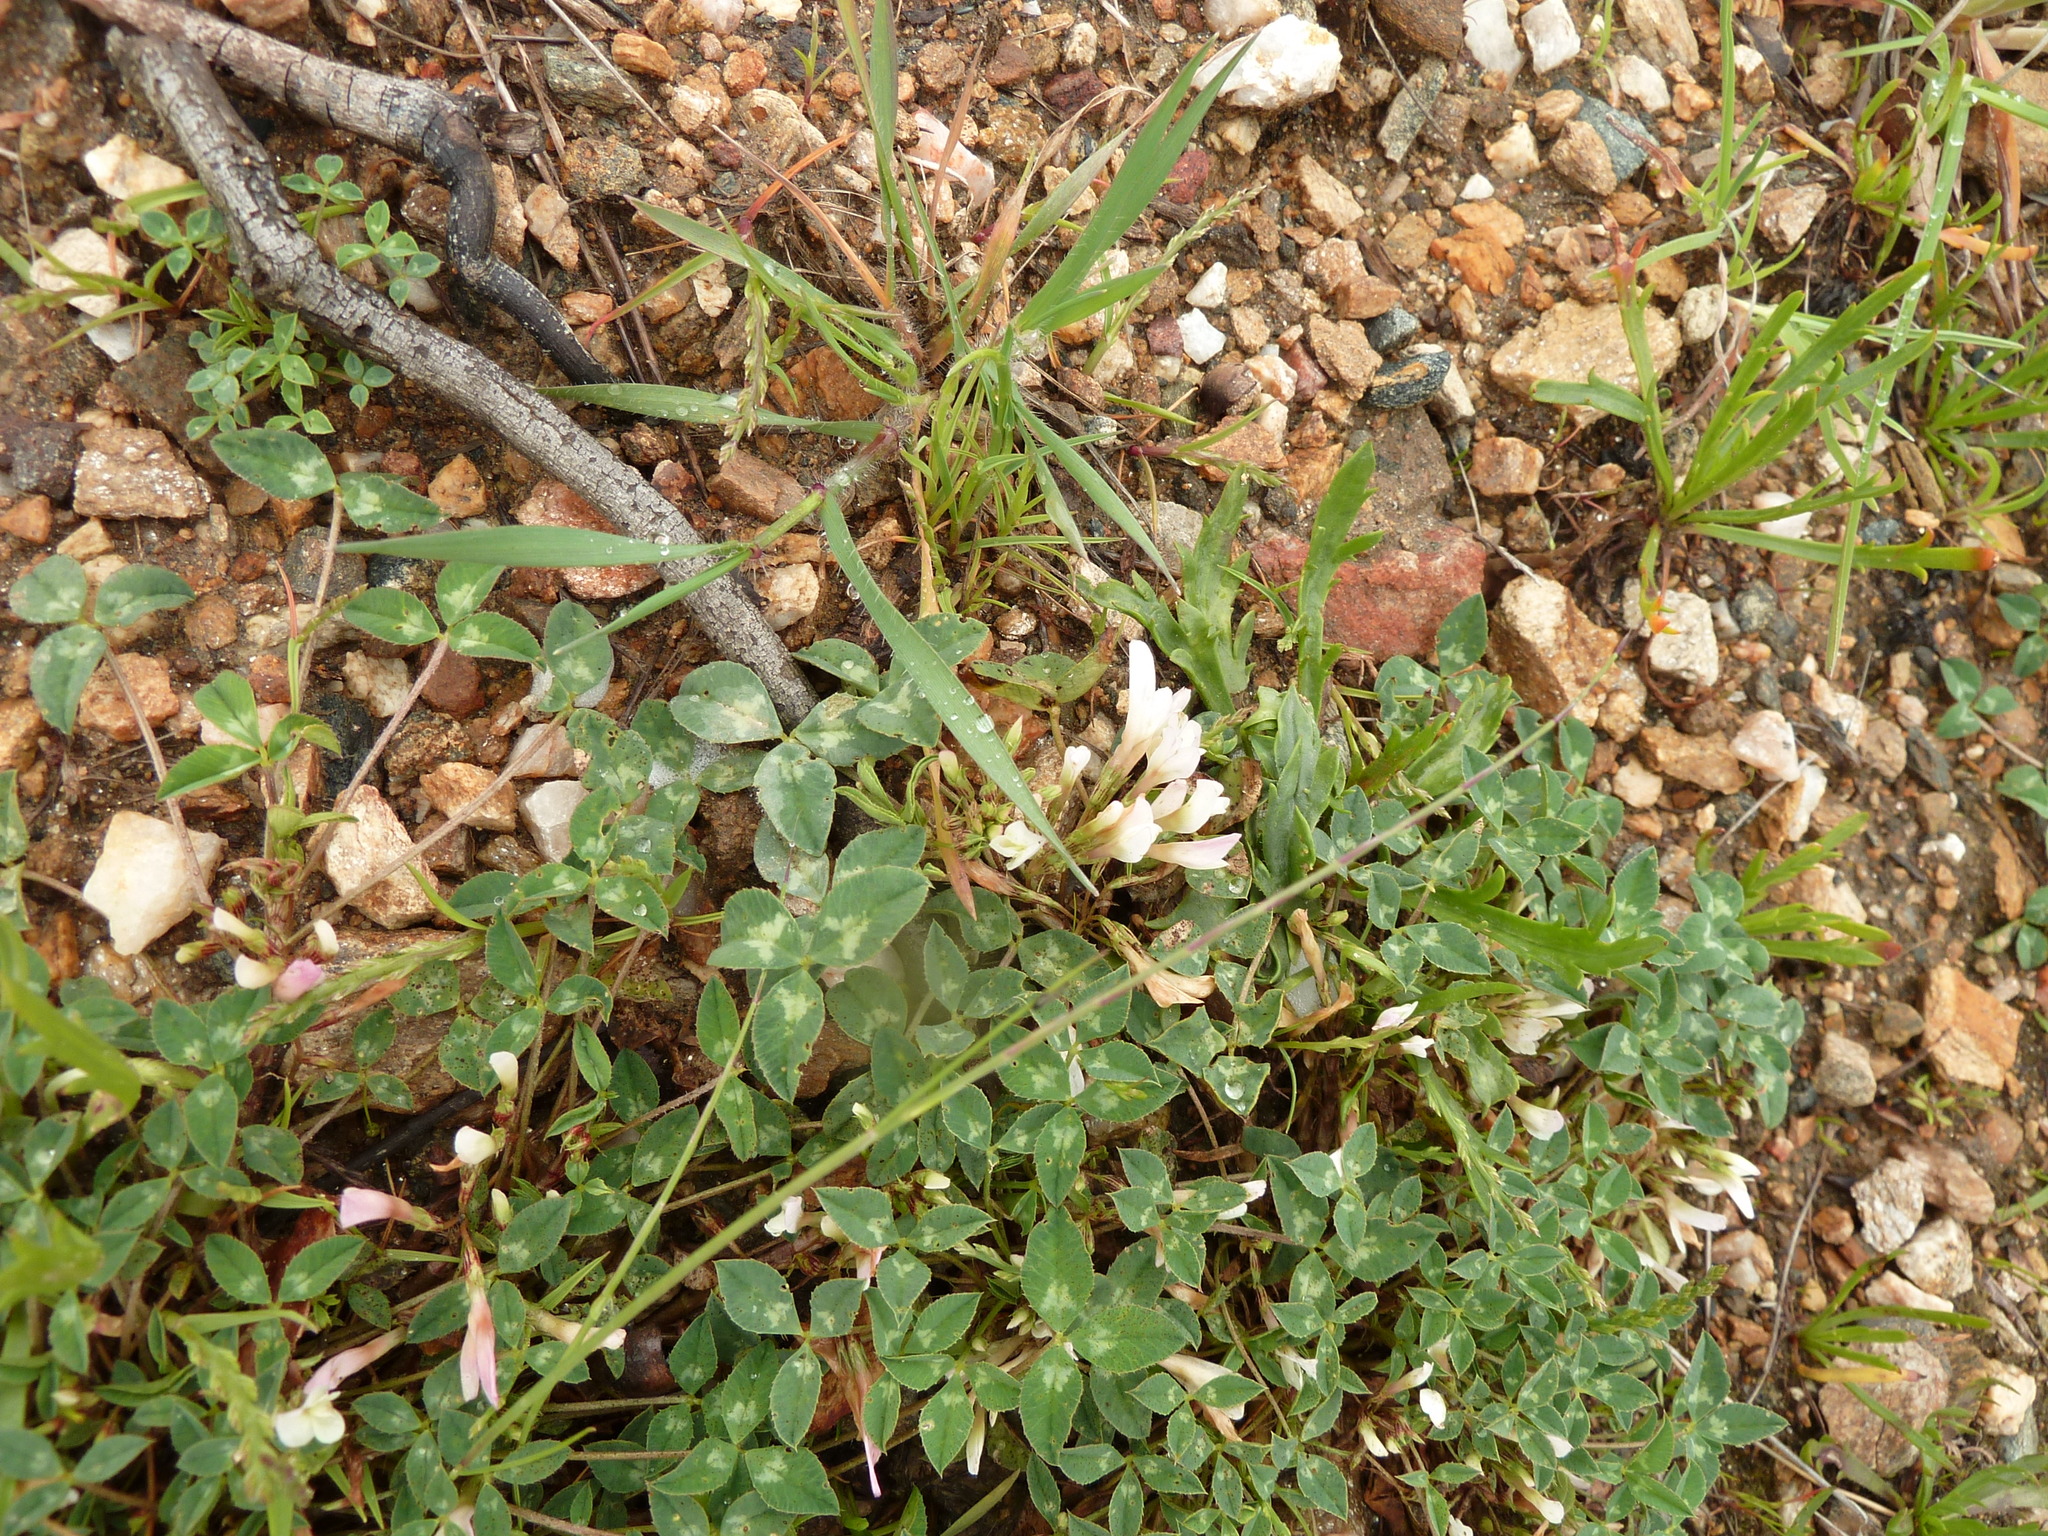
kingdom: Plantae
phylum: Tracheophyta
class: Magnoliopsida
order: Fabales
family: Fabaceae
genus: Trifolium
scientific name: Trifolium uniflorum
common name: One-flower clover
